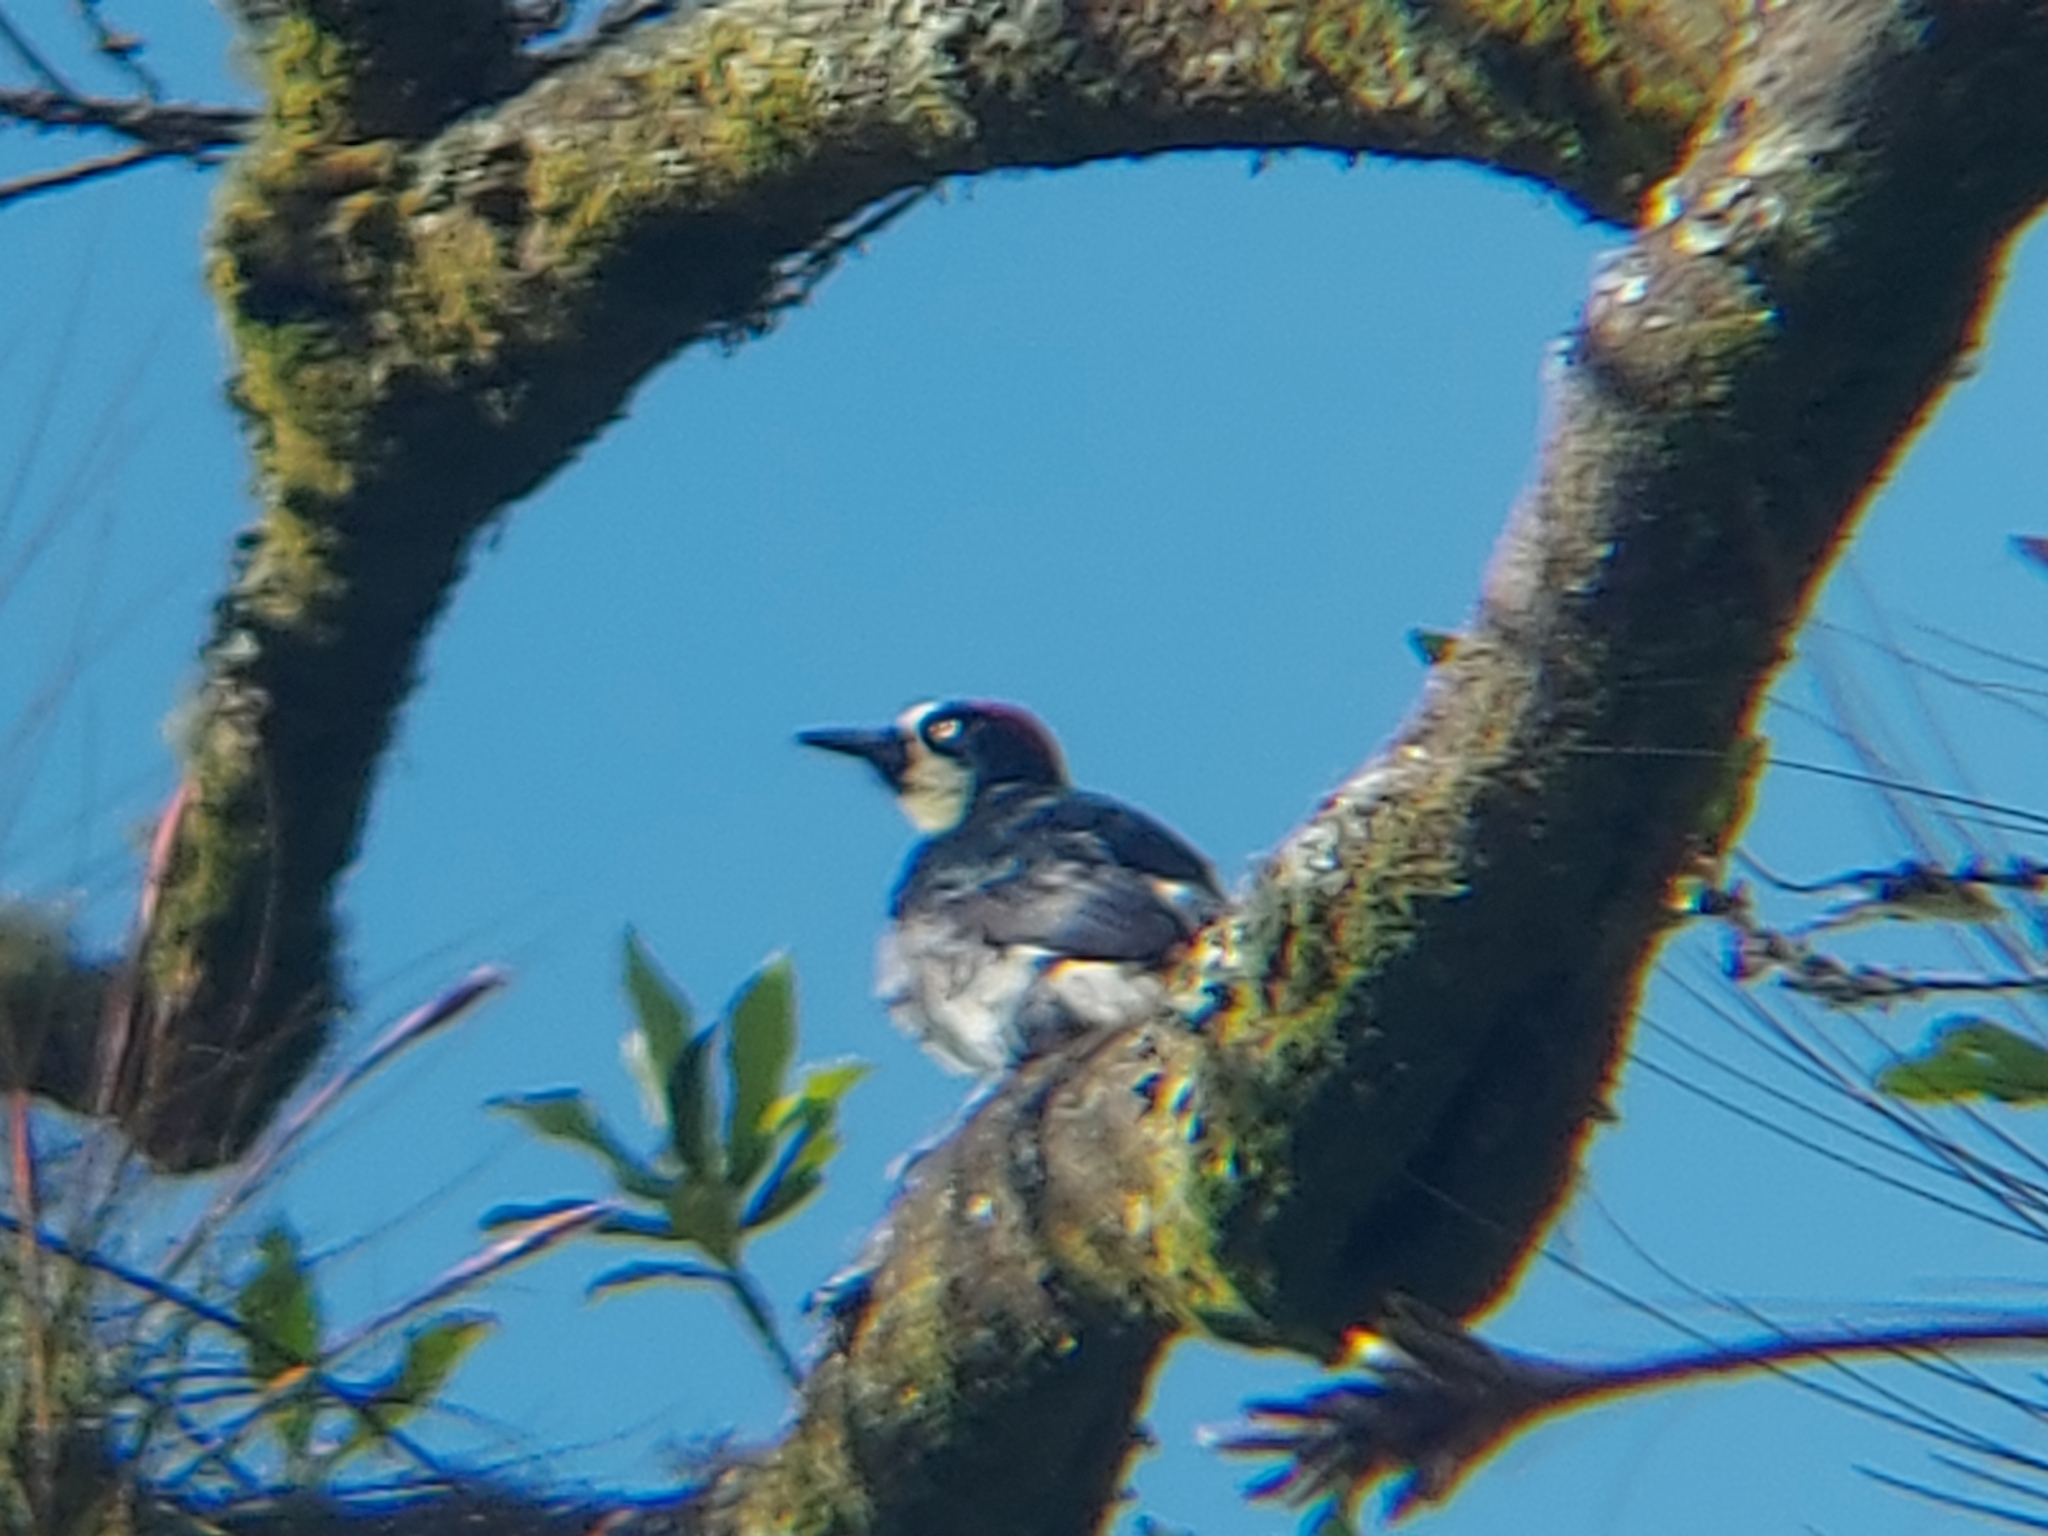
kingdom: Animalia
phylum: Chordata
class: Aves
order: Piciformes
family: Picidae
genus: Melanerpes
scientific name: Melanerpes formicivorus
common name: Acorn woodpecker
